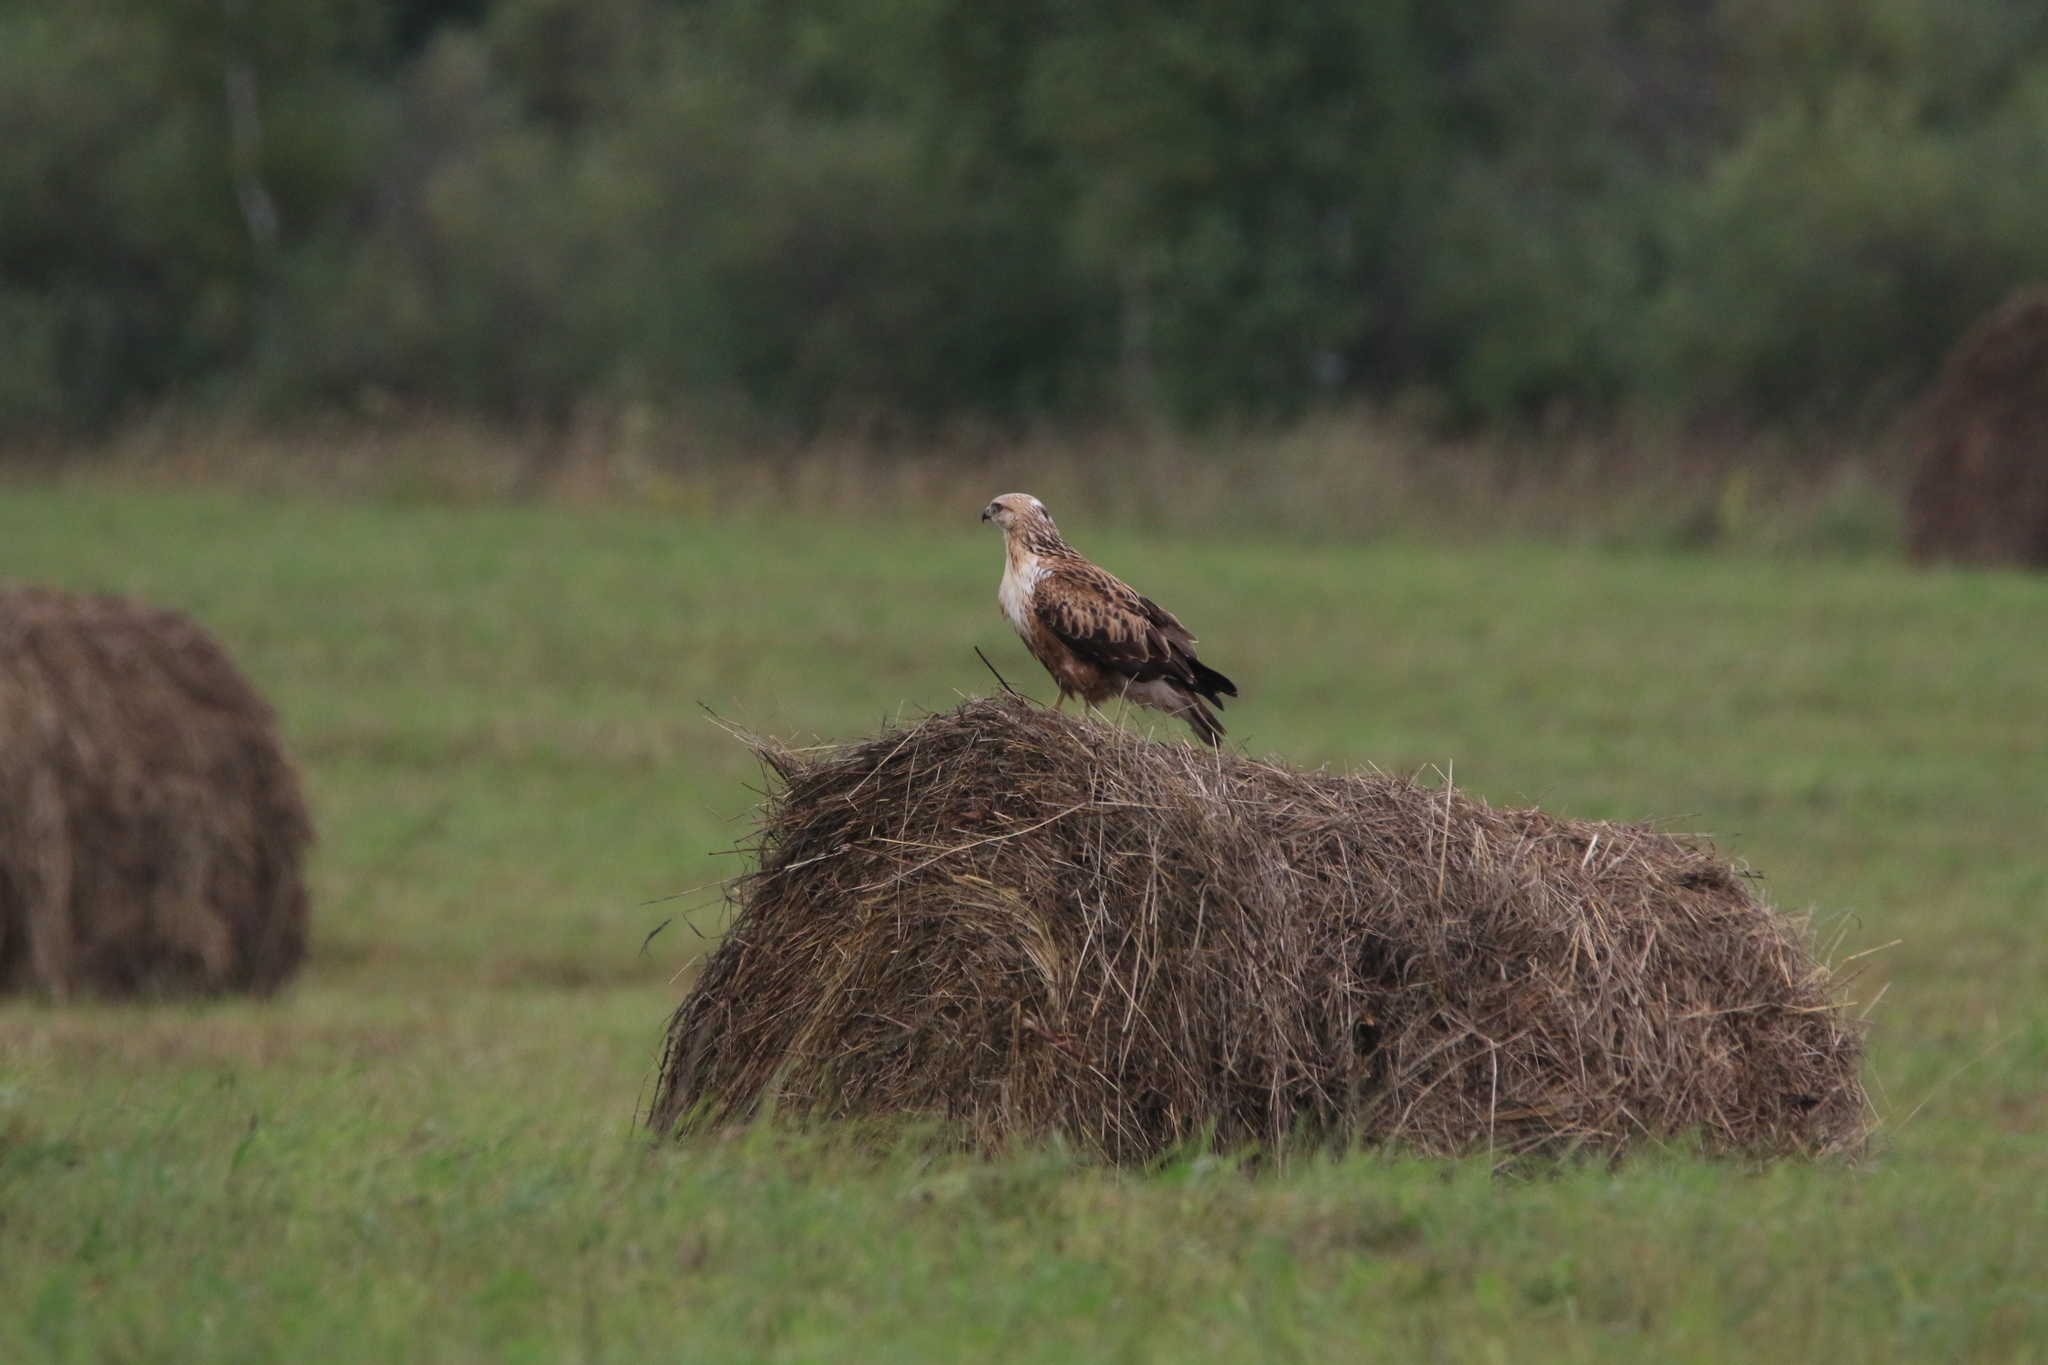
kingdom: Animalia
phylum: Chordata
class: Aves
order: Accipitriformes
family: Accipitridae
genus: Buteo
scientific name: Buteo rufinus
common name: Long-legged buzzard
